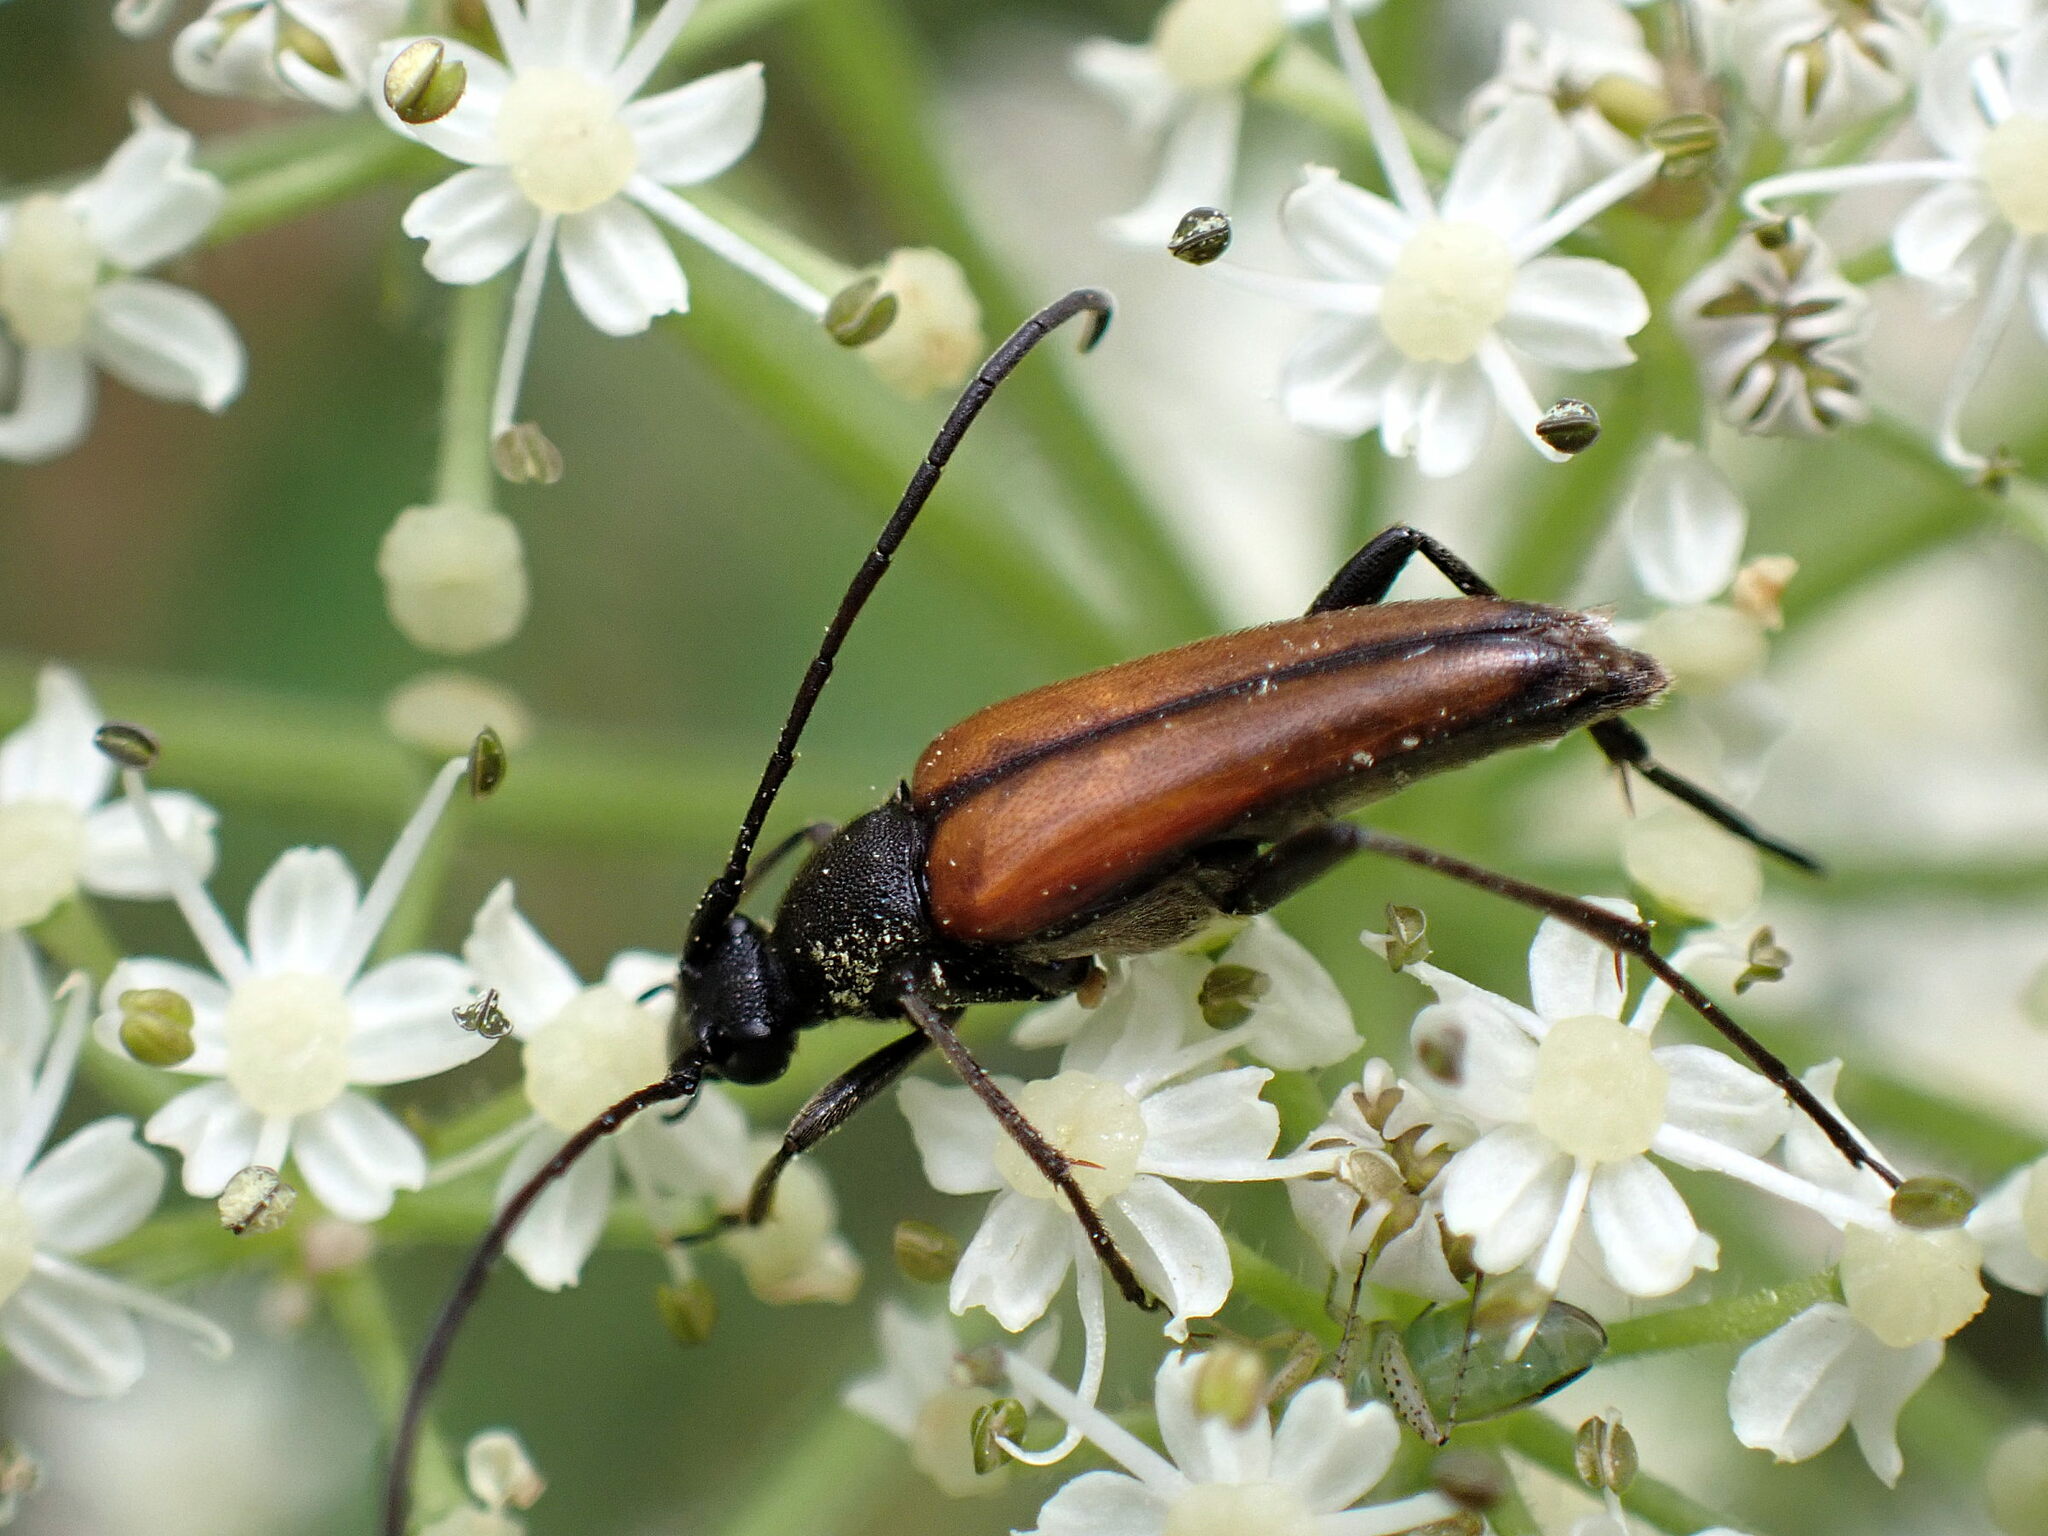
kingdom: Animalia
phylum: Arthropoda
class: Insecta
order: Coleoptera
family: Cerambycidae
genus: Stenurella
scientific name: Stenurella melanura
